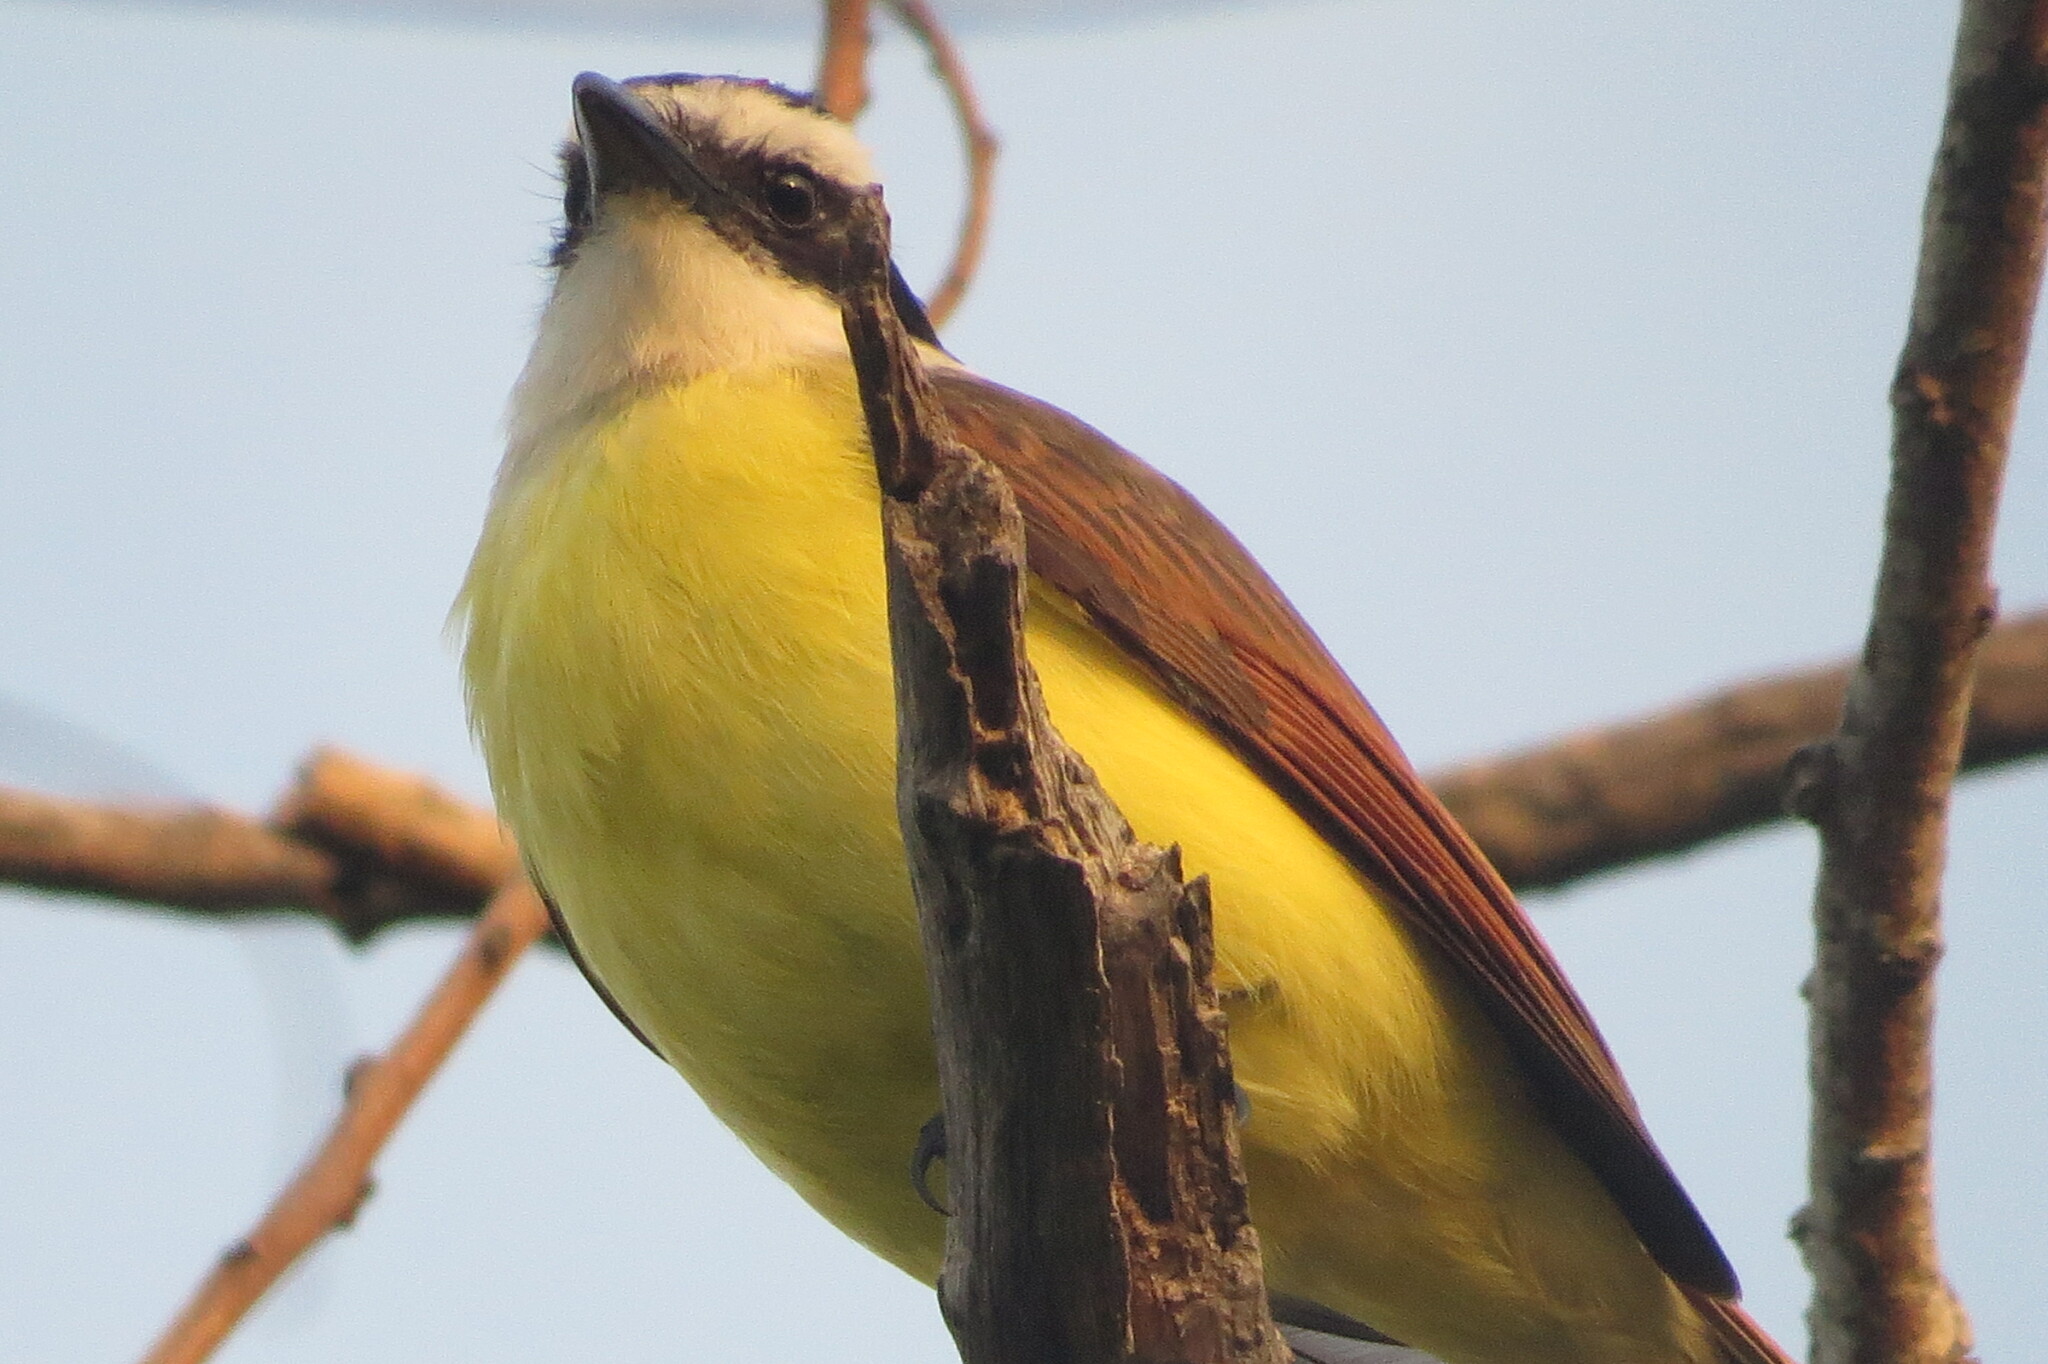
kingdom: Animalia
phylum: Chordata
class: Aves
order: Passeriformes
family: Tyrannidae
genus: Pitangus
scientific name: Pitangus sulphuratus
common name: Great kiskadee
